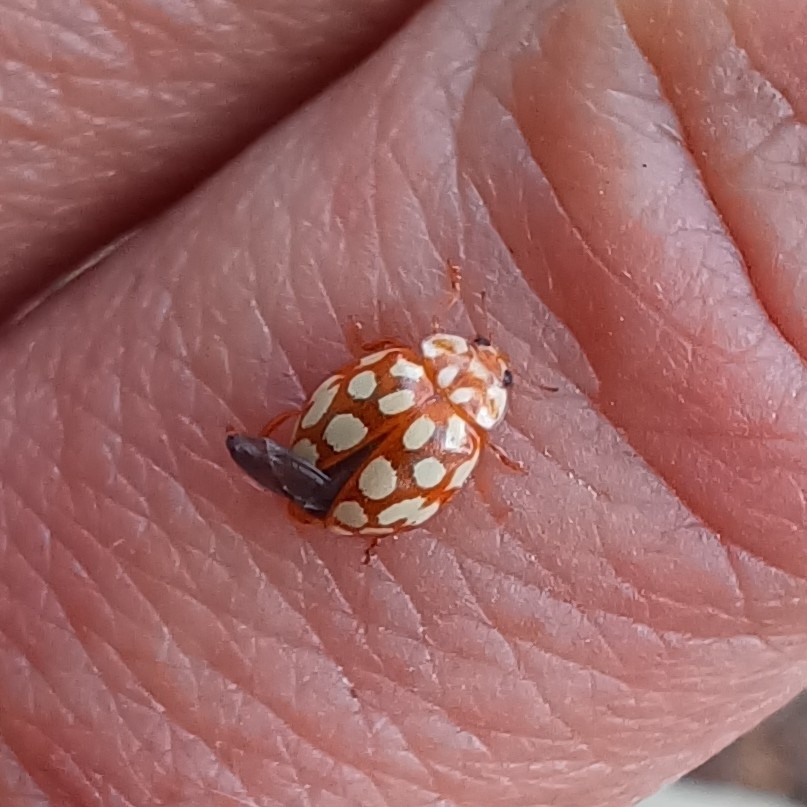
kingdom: Animalia
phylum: Arthropoda
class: Insecta
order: Coleoptera
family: Coccinellidae
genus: Sospita
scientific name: Sospita vigintiguttata
